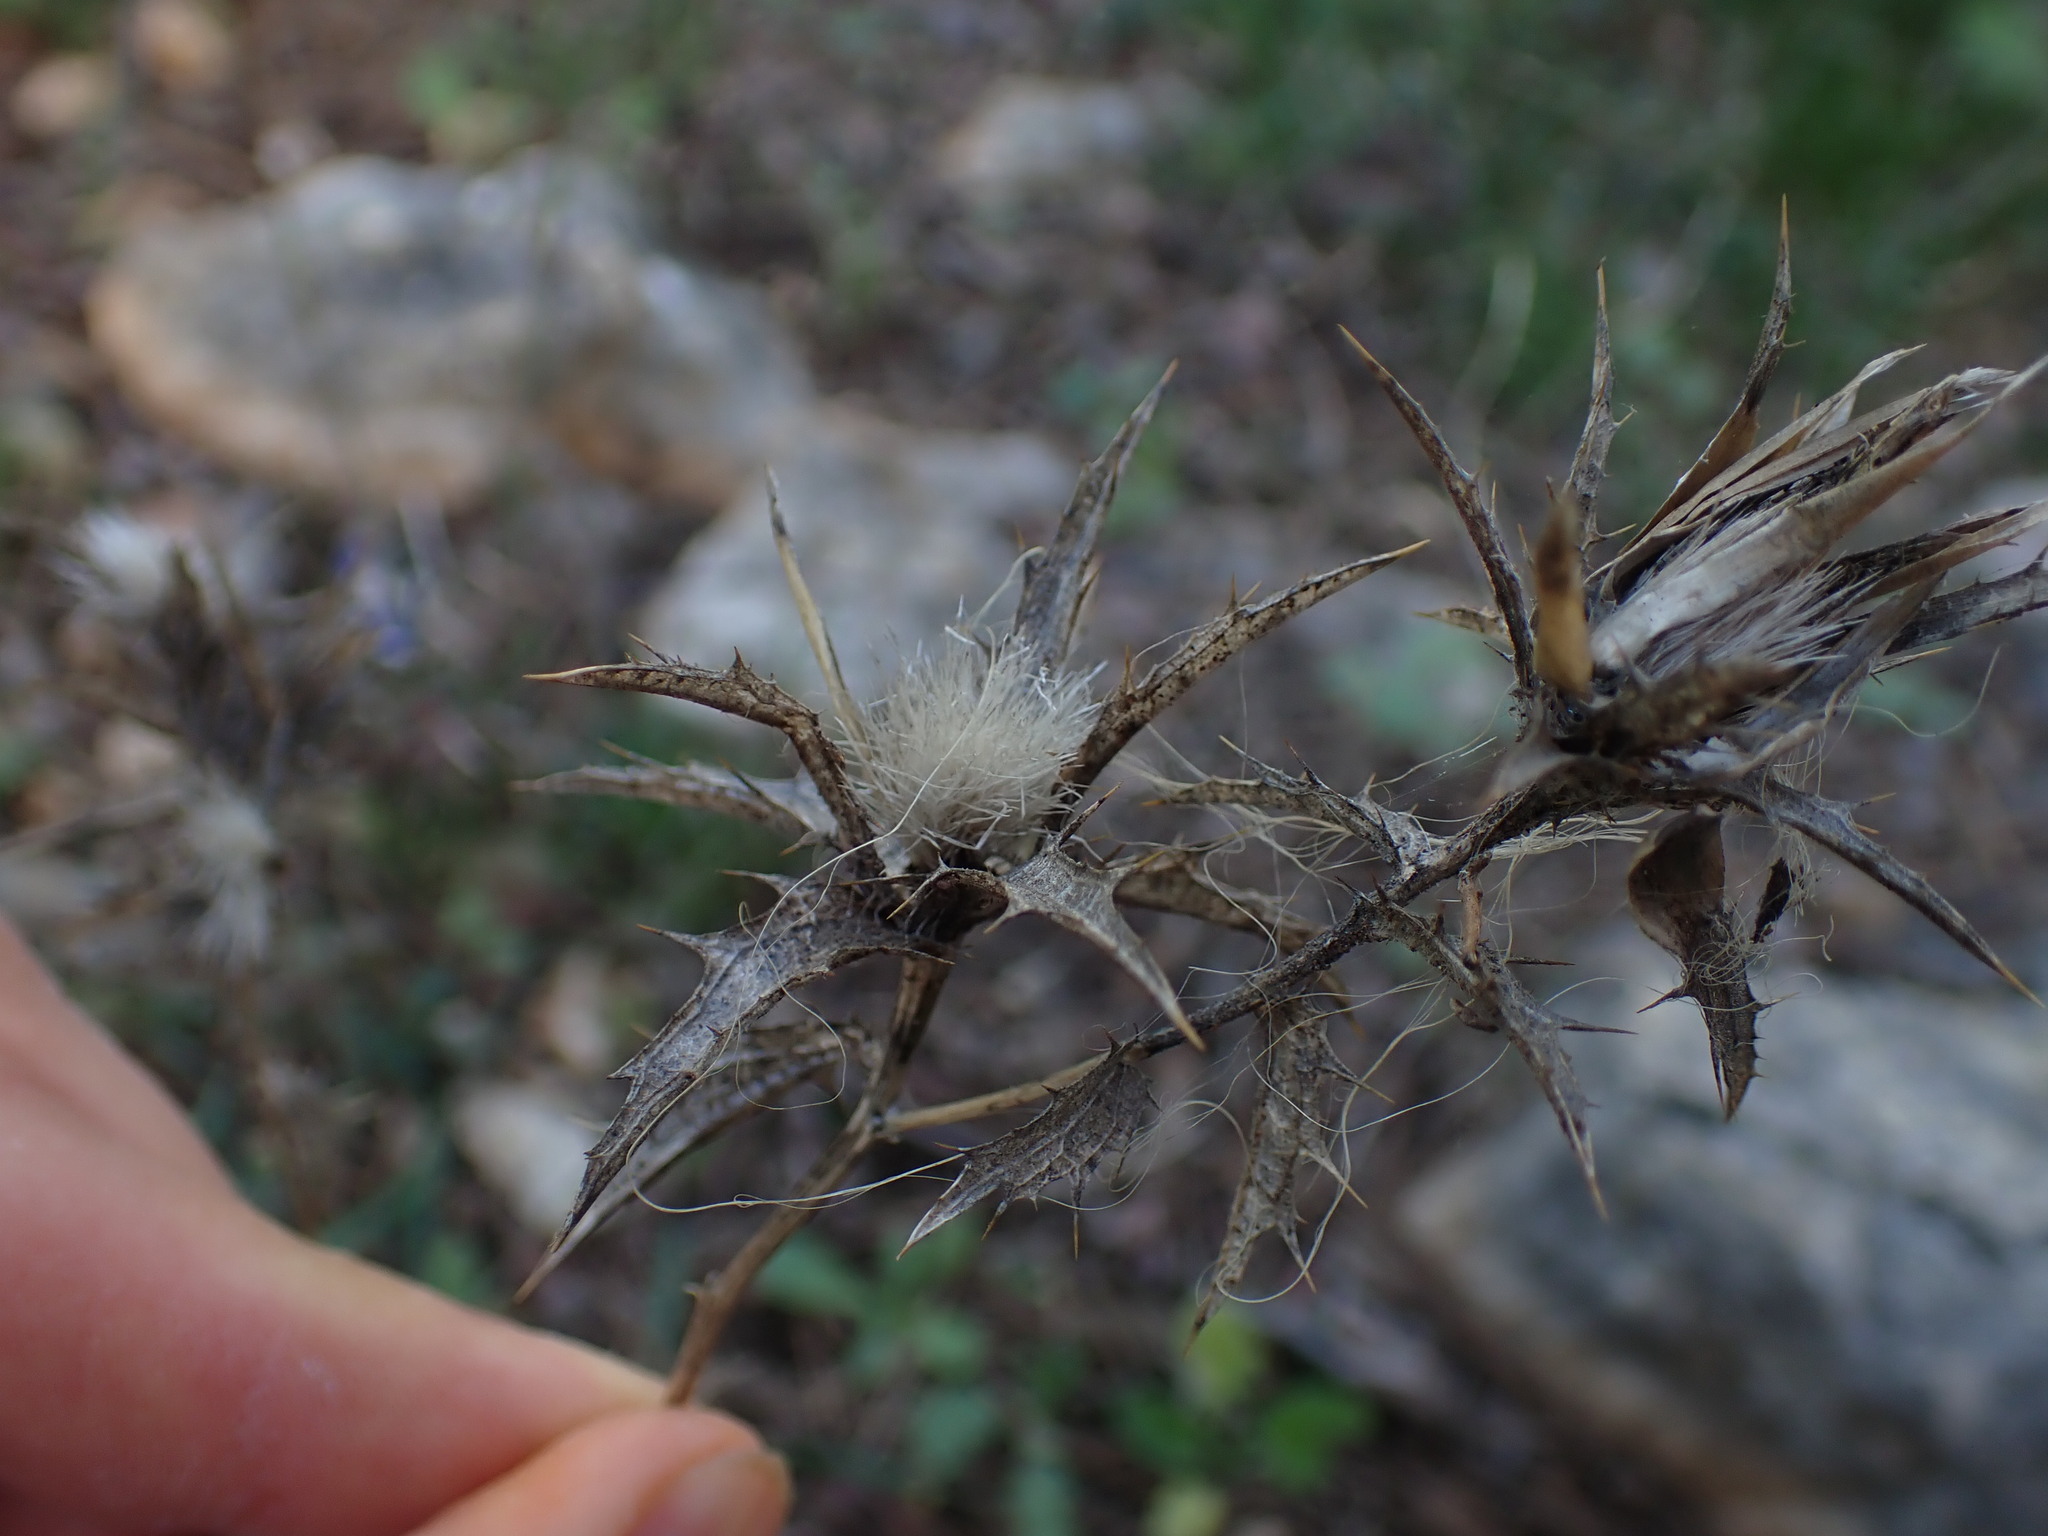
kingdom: Plantae
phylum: Tracheophyta
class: Magnoliopsida
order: Asterales
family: Asteraceae
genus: Carthamus
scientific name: Carthamus lanatus
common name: Downy safflower
